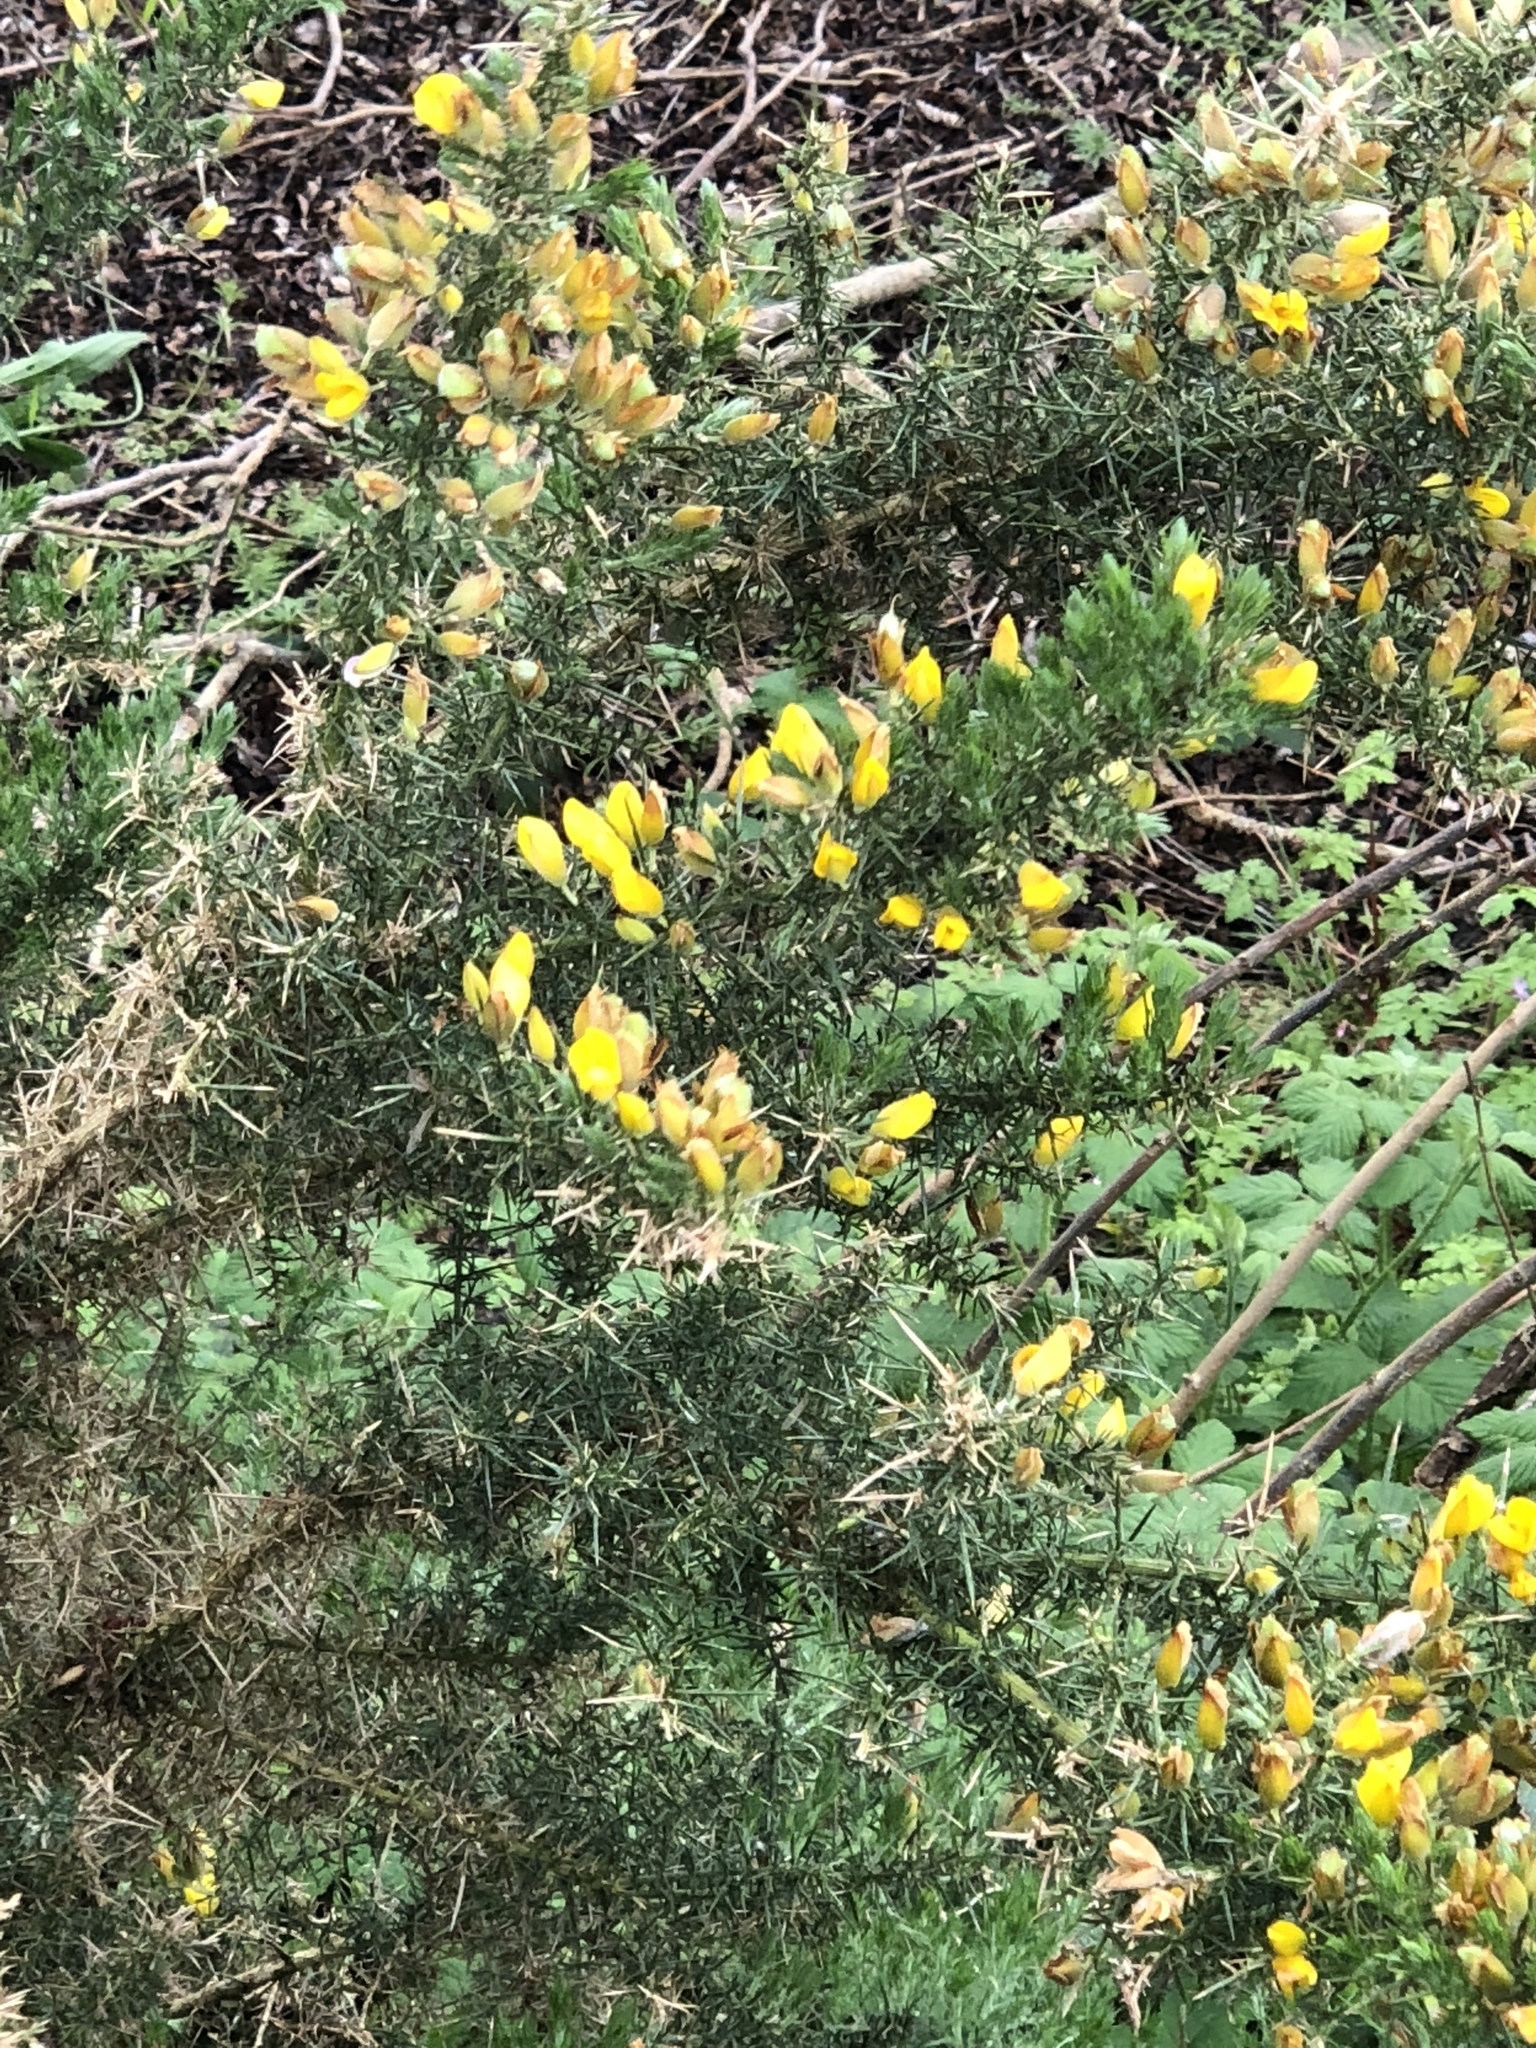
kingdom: Plantae
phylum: Tracheophyta
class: Magnoliopsida
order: Fabales
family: Fabaceae
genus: Ulex
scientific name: Ulex europaeus
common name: Common gorse
